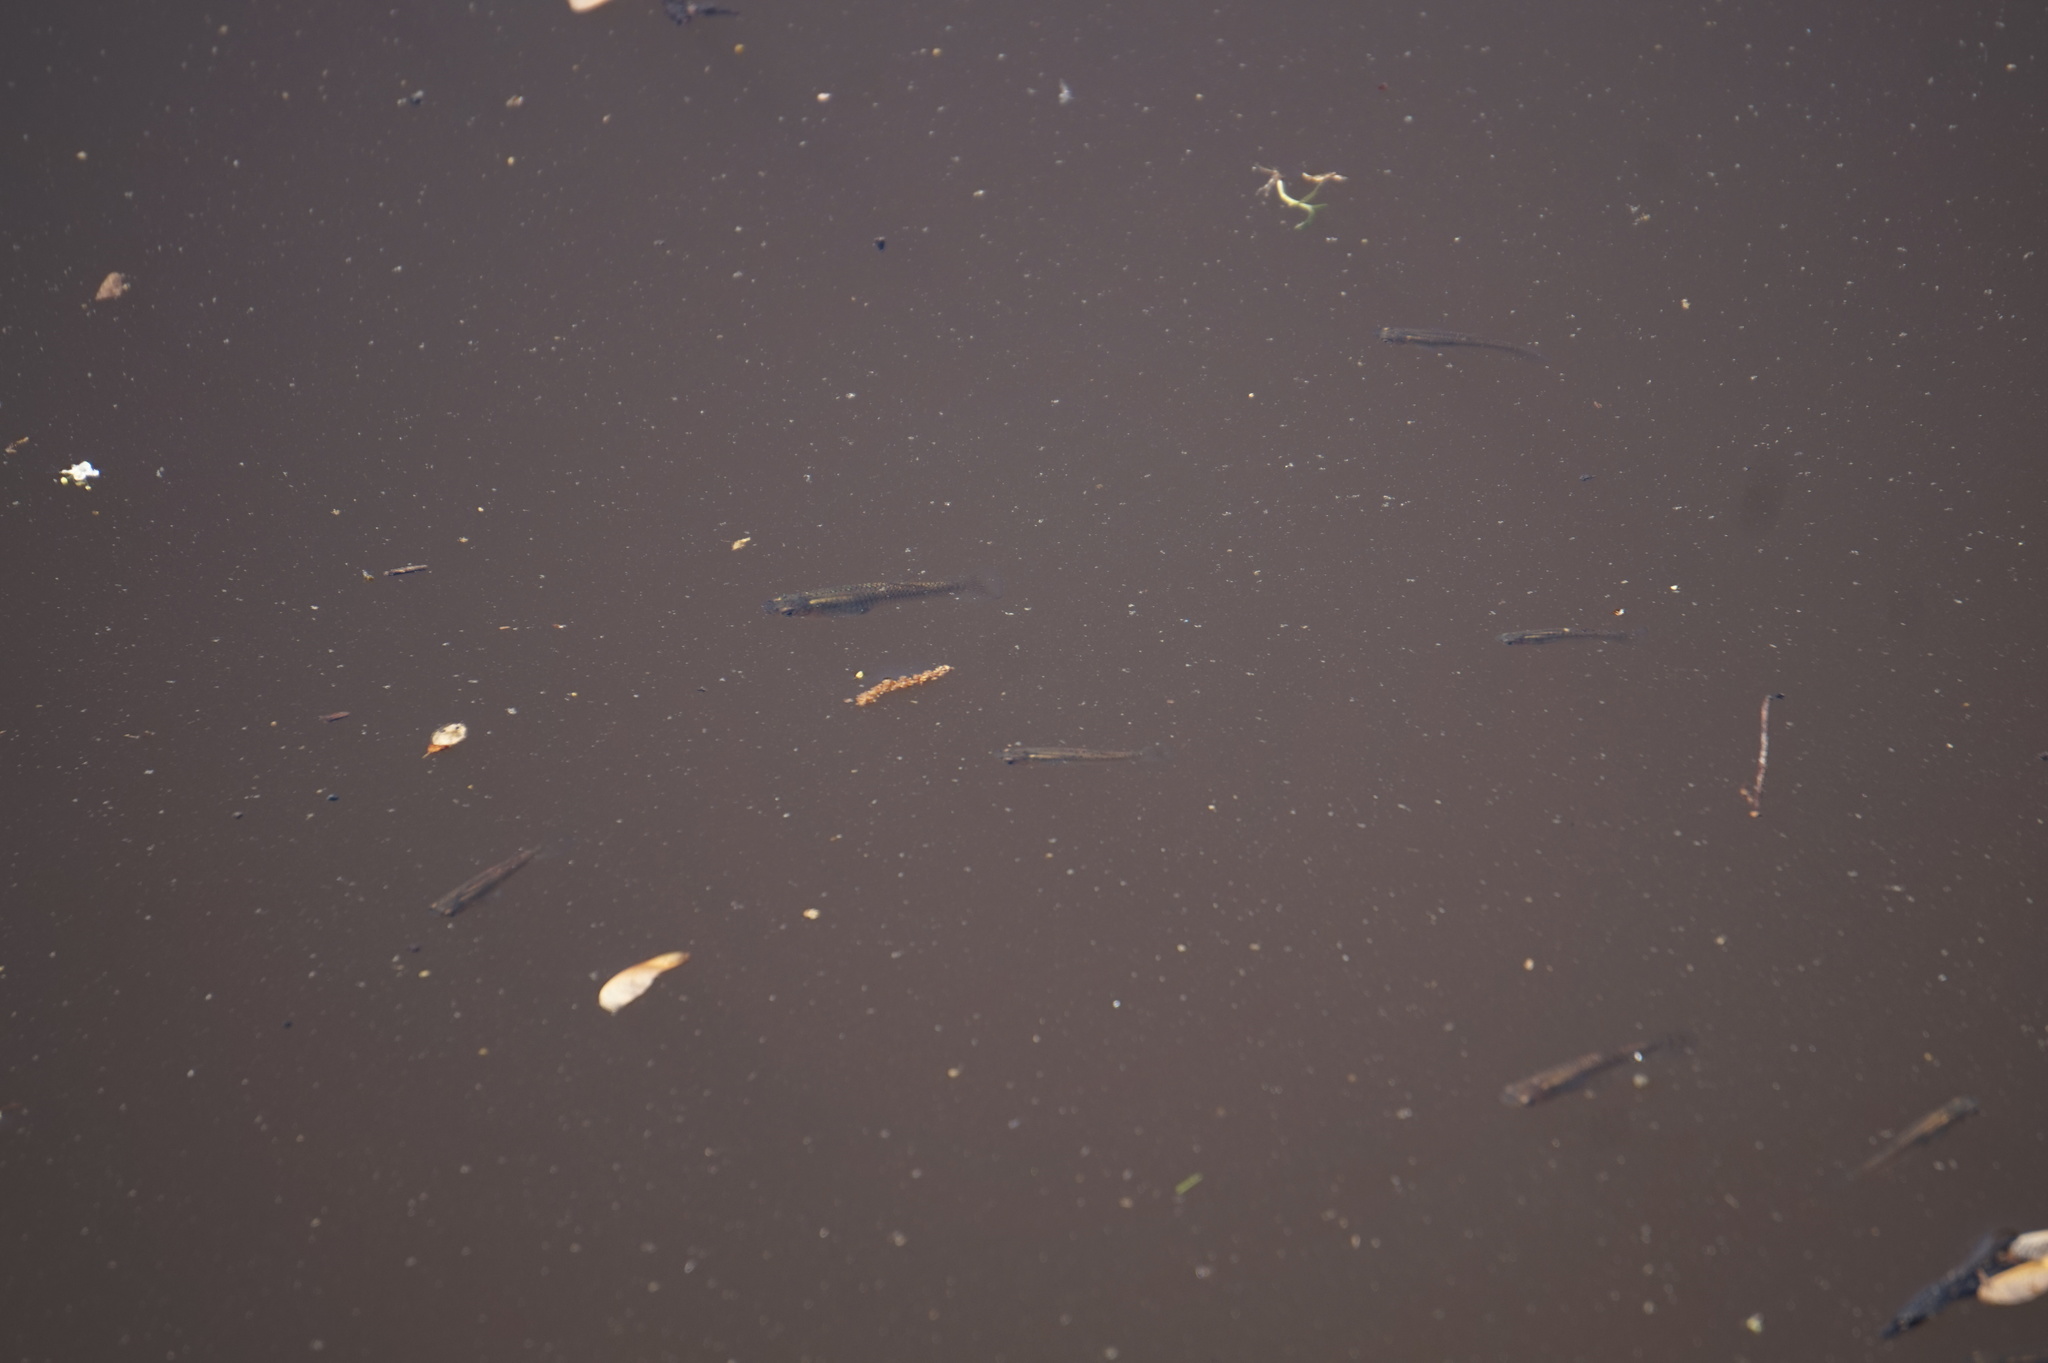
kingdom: Animalia
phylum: Chordata
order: Cyprinodontiformes
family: Poeciliidae
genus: Gambusia
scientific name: Gambusia holbrooki
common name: Eastern mosquitofish
